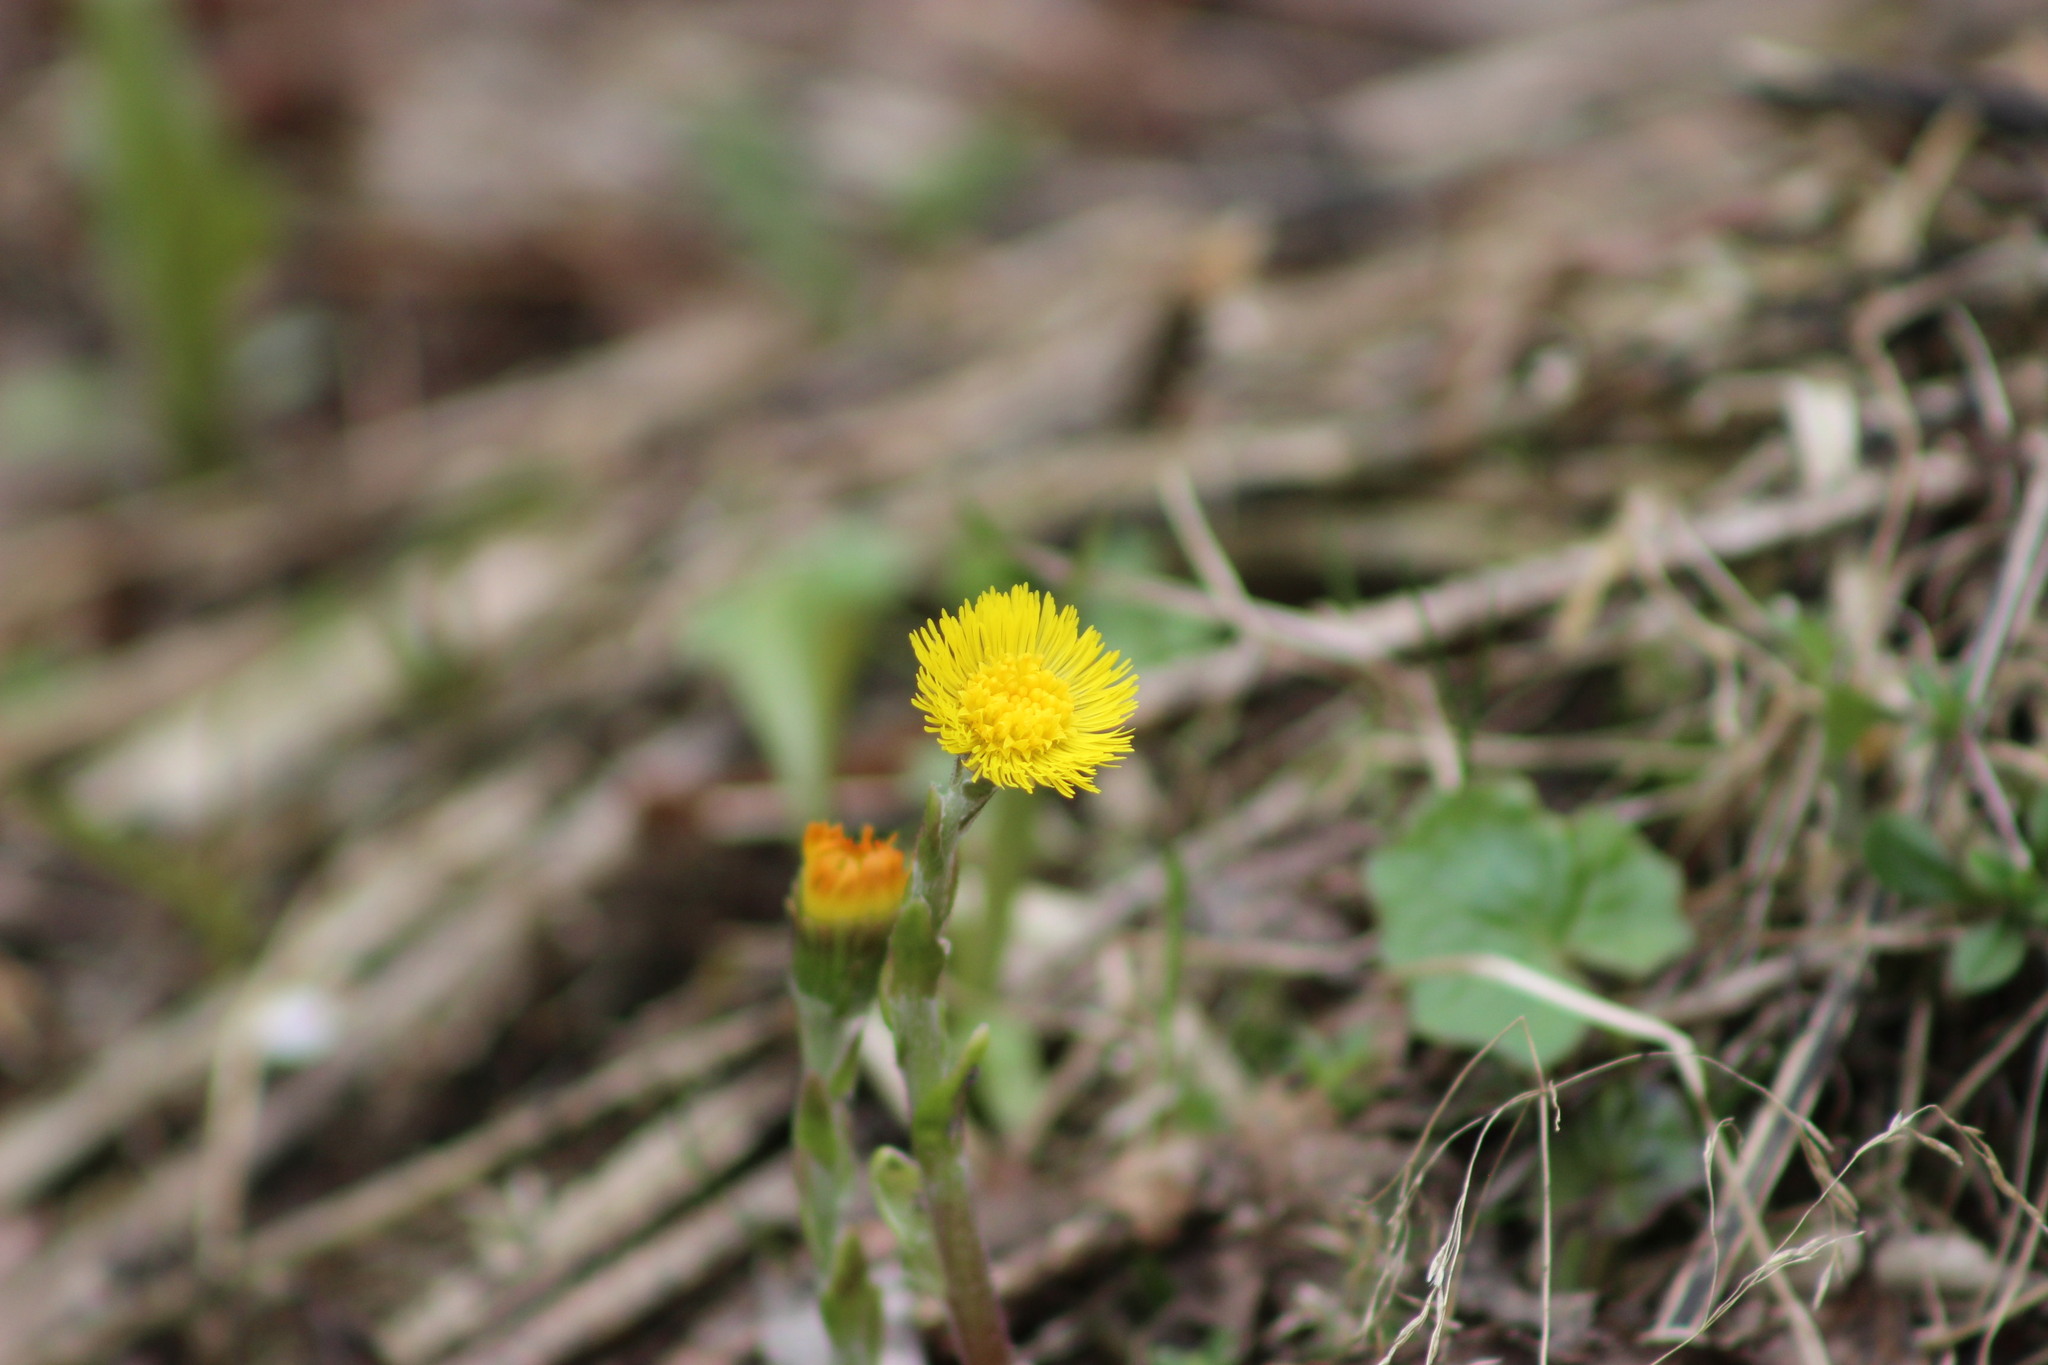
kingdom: Plantae
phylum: Tracheophyta
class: Magnoliopsida
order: Asterales
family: Asteraceae
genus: Tussilago
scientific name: Tussilago farfara
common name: Coltsfoot
